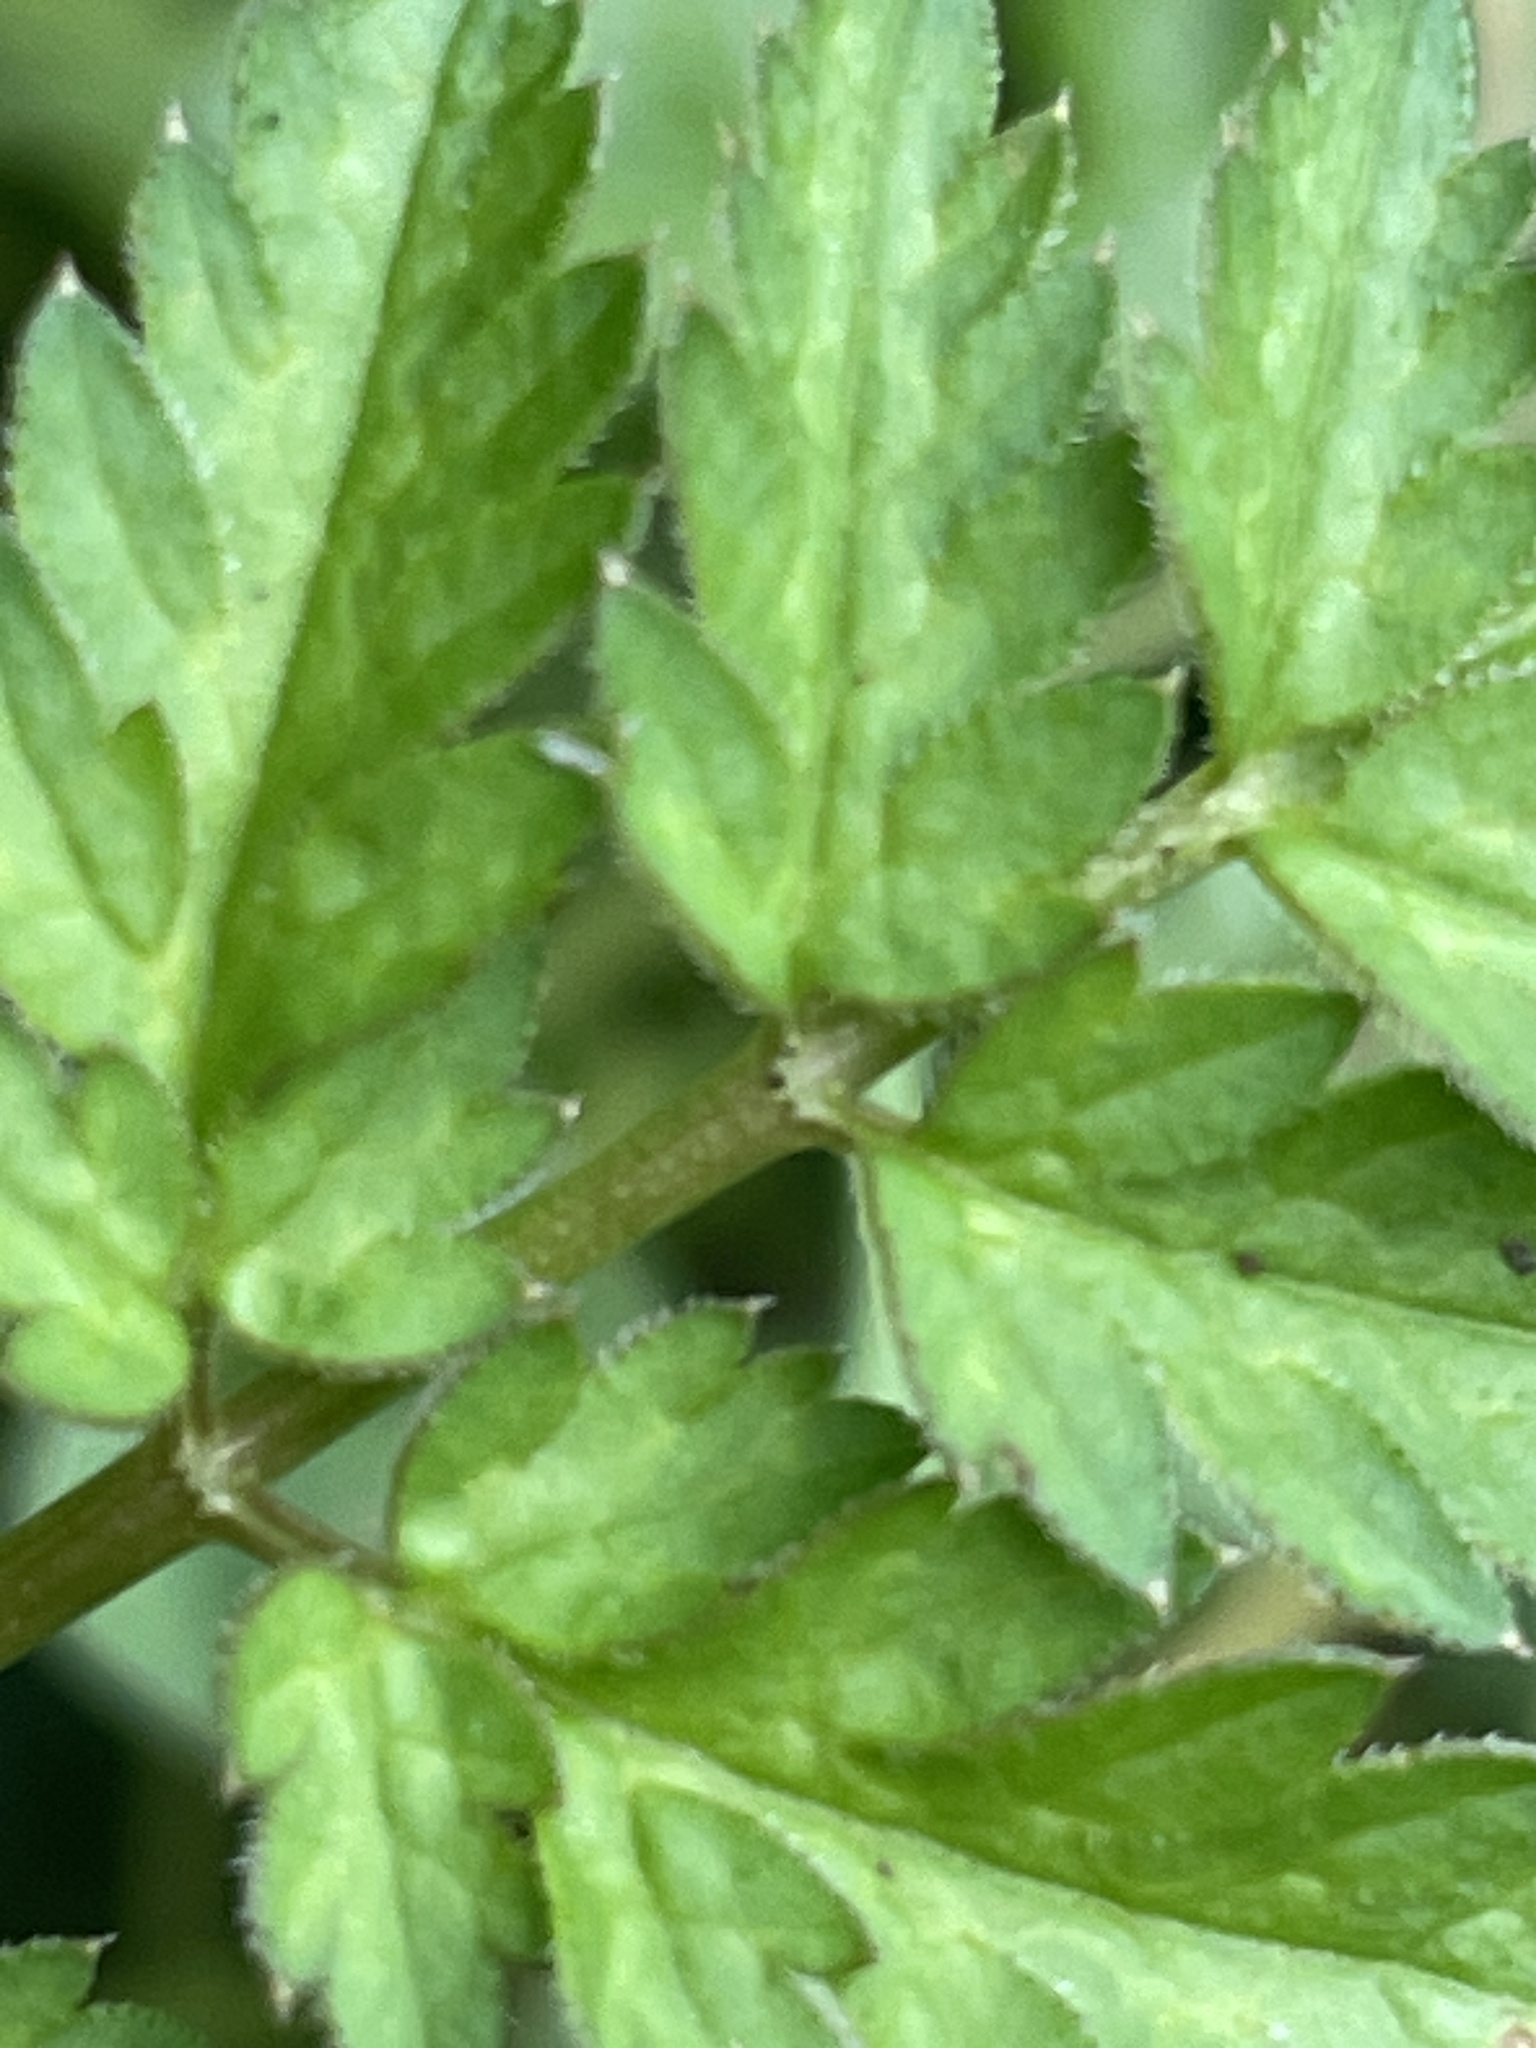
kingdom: Plantae
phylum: Tracheophyta
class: Magnoliopsida
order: Apiales
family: Apiaceae
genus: Anthriscus
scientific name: Anthriscus sylvestris
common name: Cow parsley
